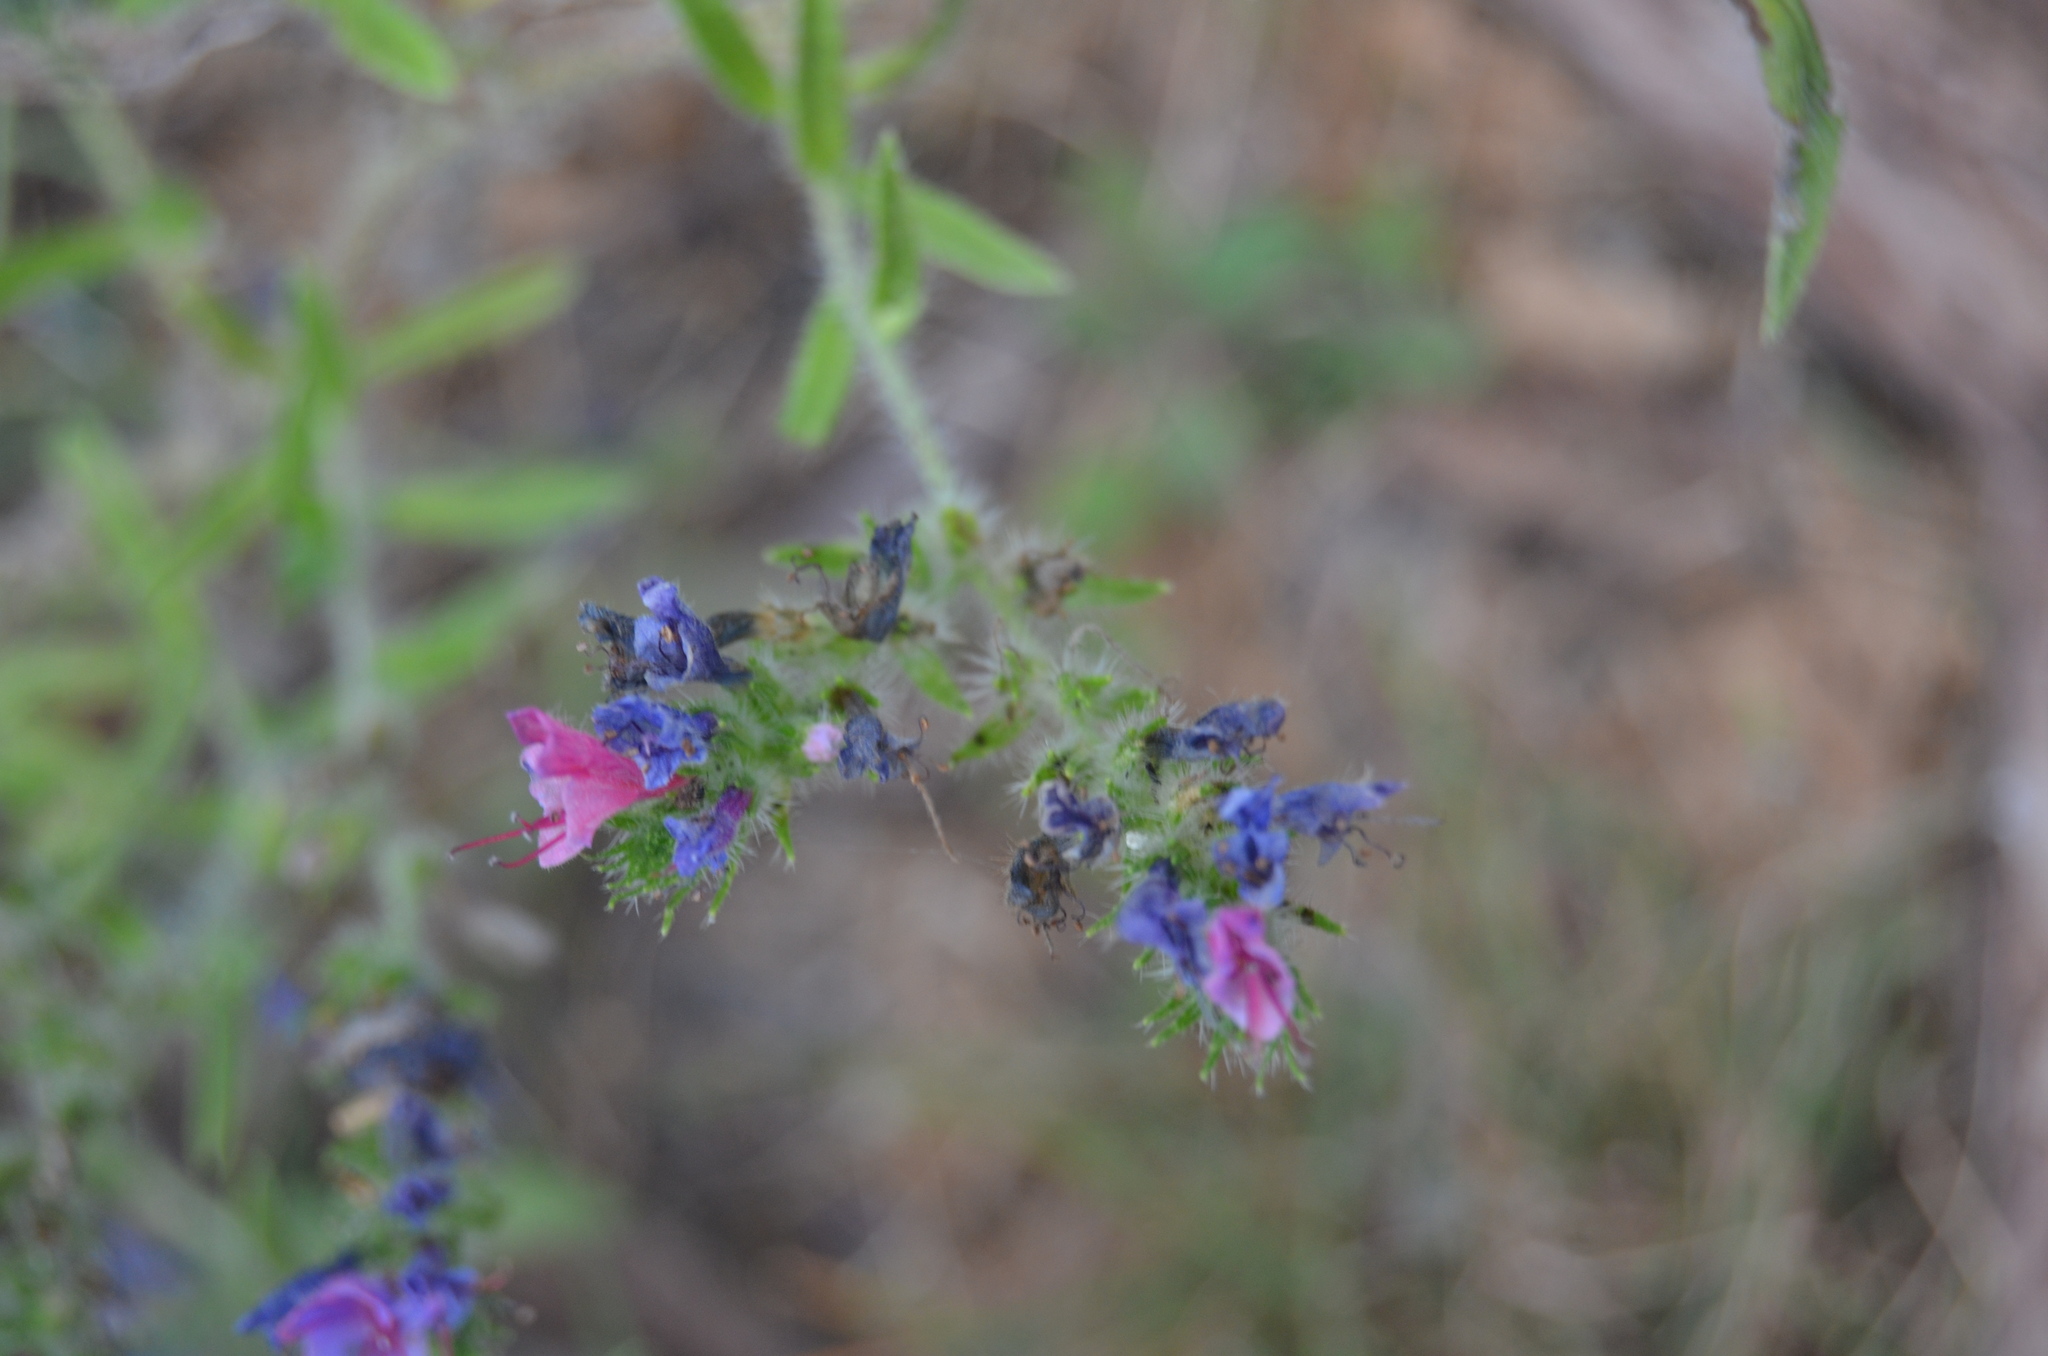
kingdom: Plantae
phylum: Tracheophyta
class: Magnoliopsida
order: Boraginales
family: Boraginaceae
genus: Echium
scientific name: Echium vulgare
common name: Common viper's bugloss
